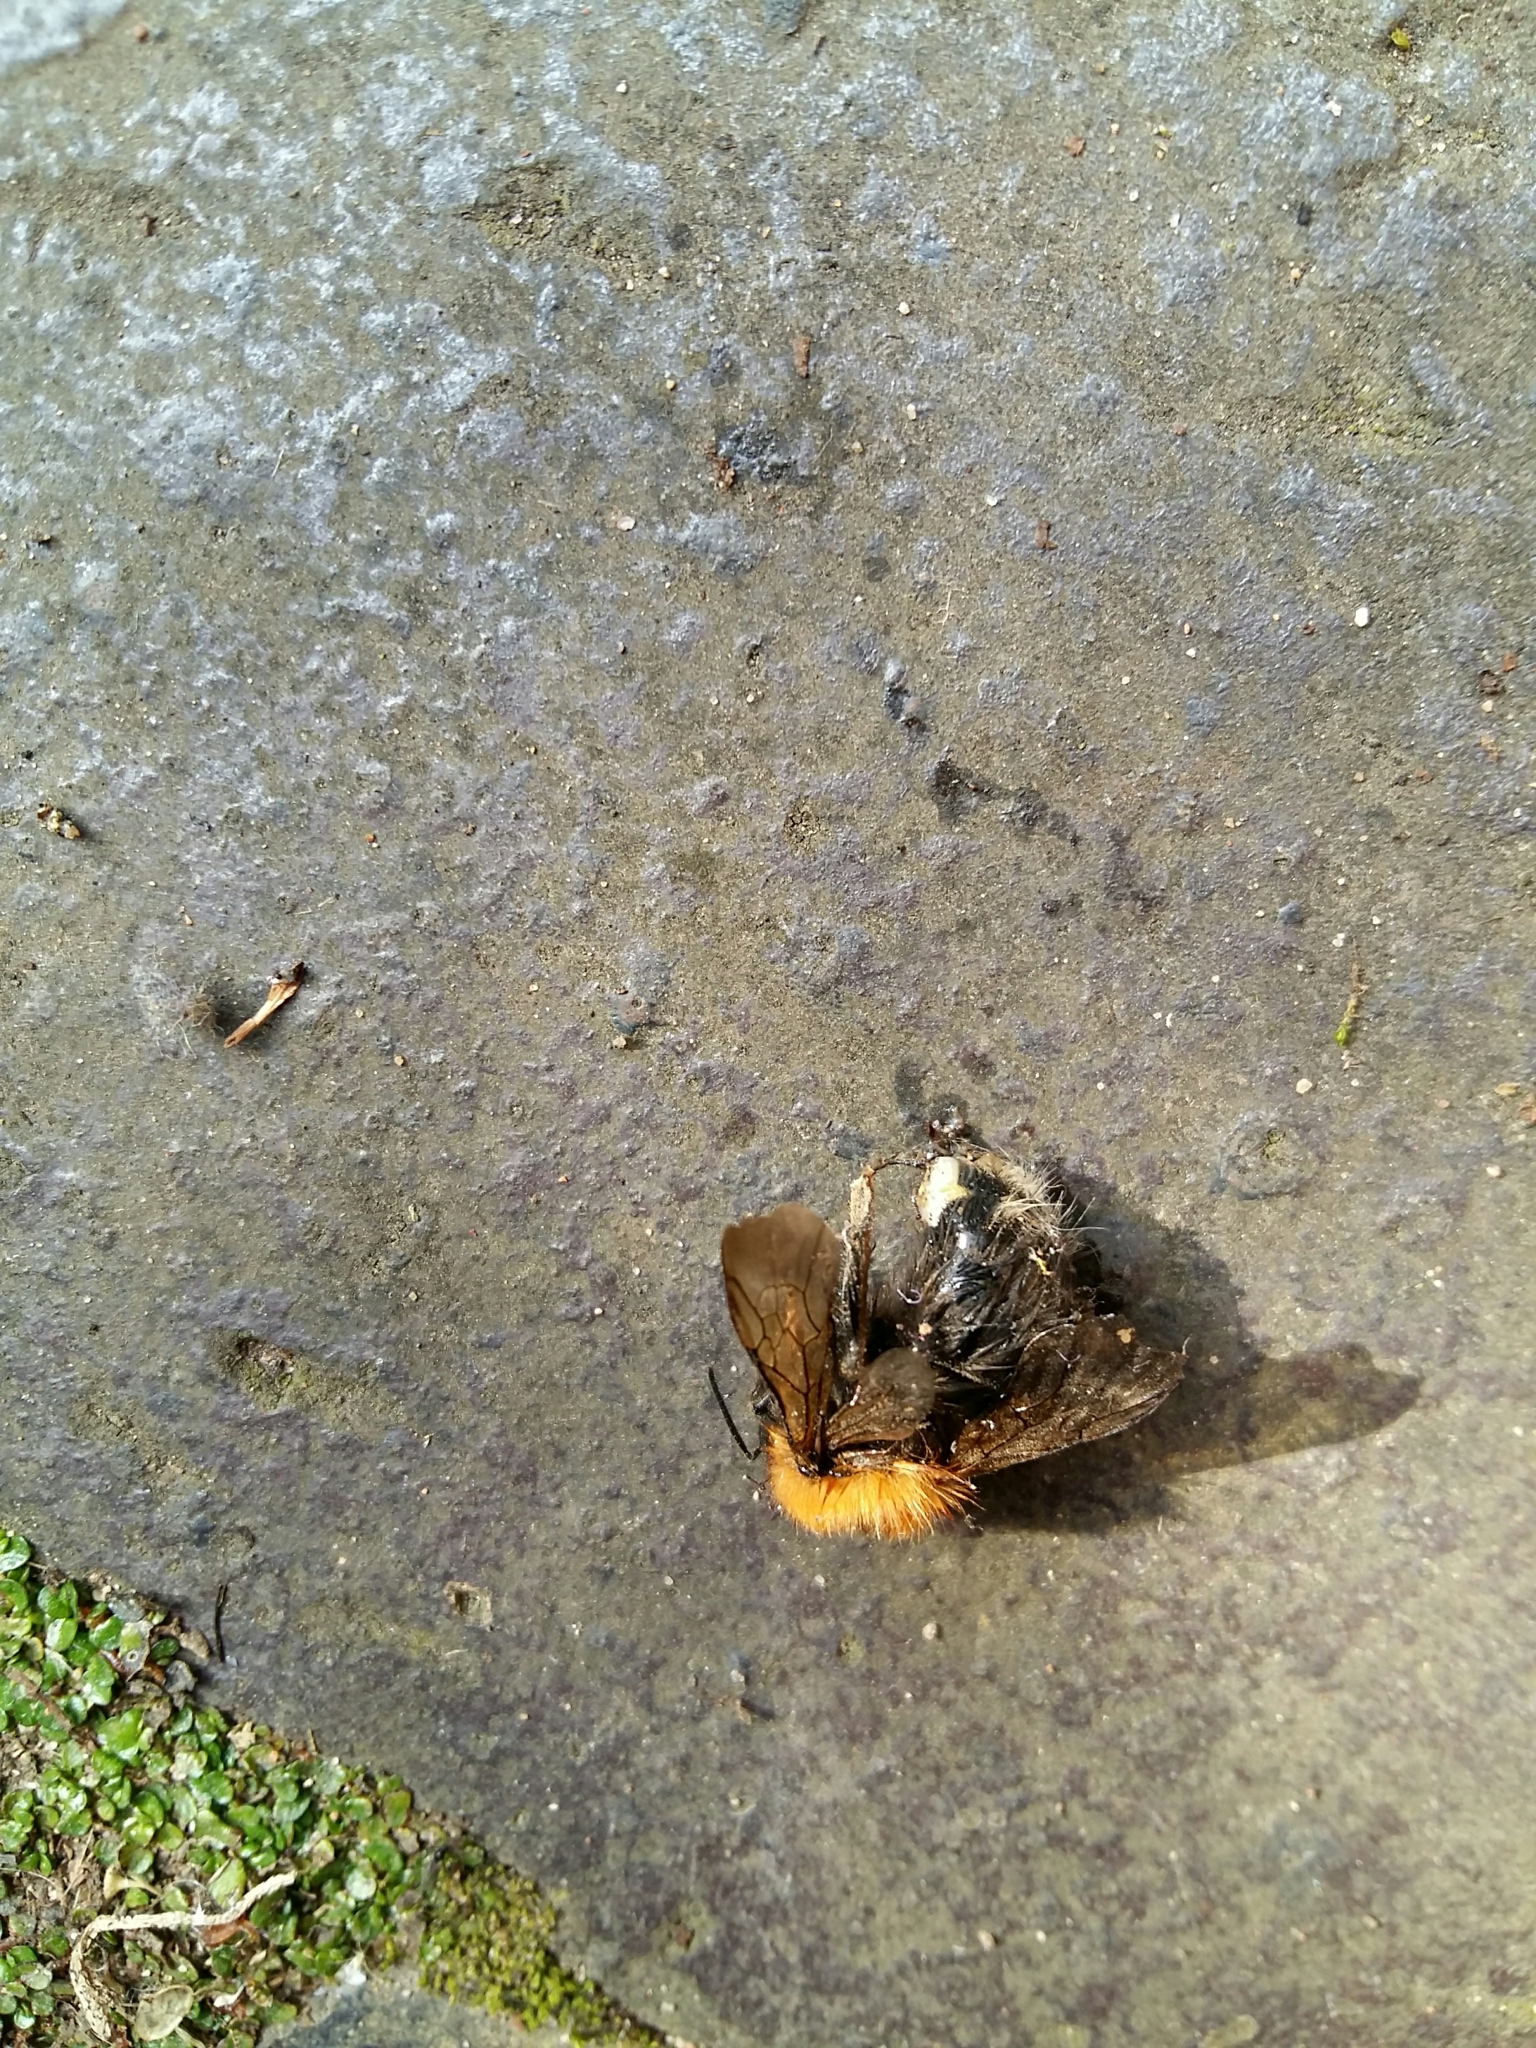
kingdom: Animalia
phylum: Arthropoda
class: Insecta
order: Hymenoptera
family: Apidae
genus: Bombus
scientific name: Bombus hypnorum
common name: New garden bumblebee
